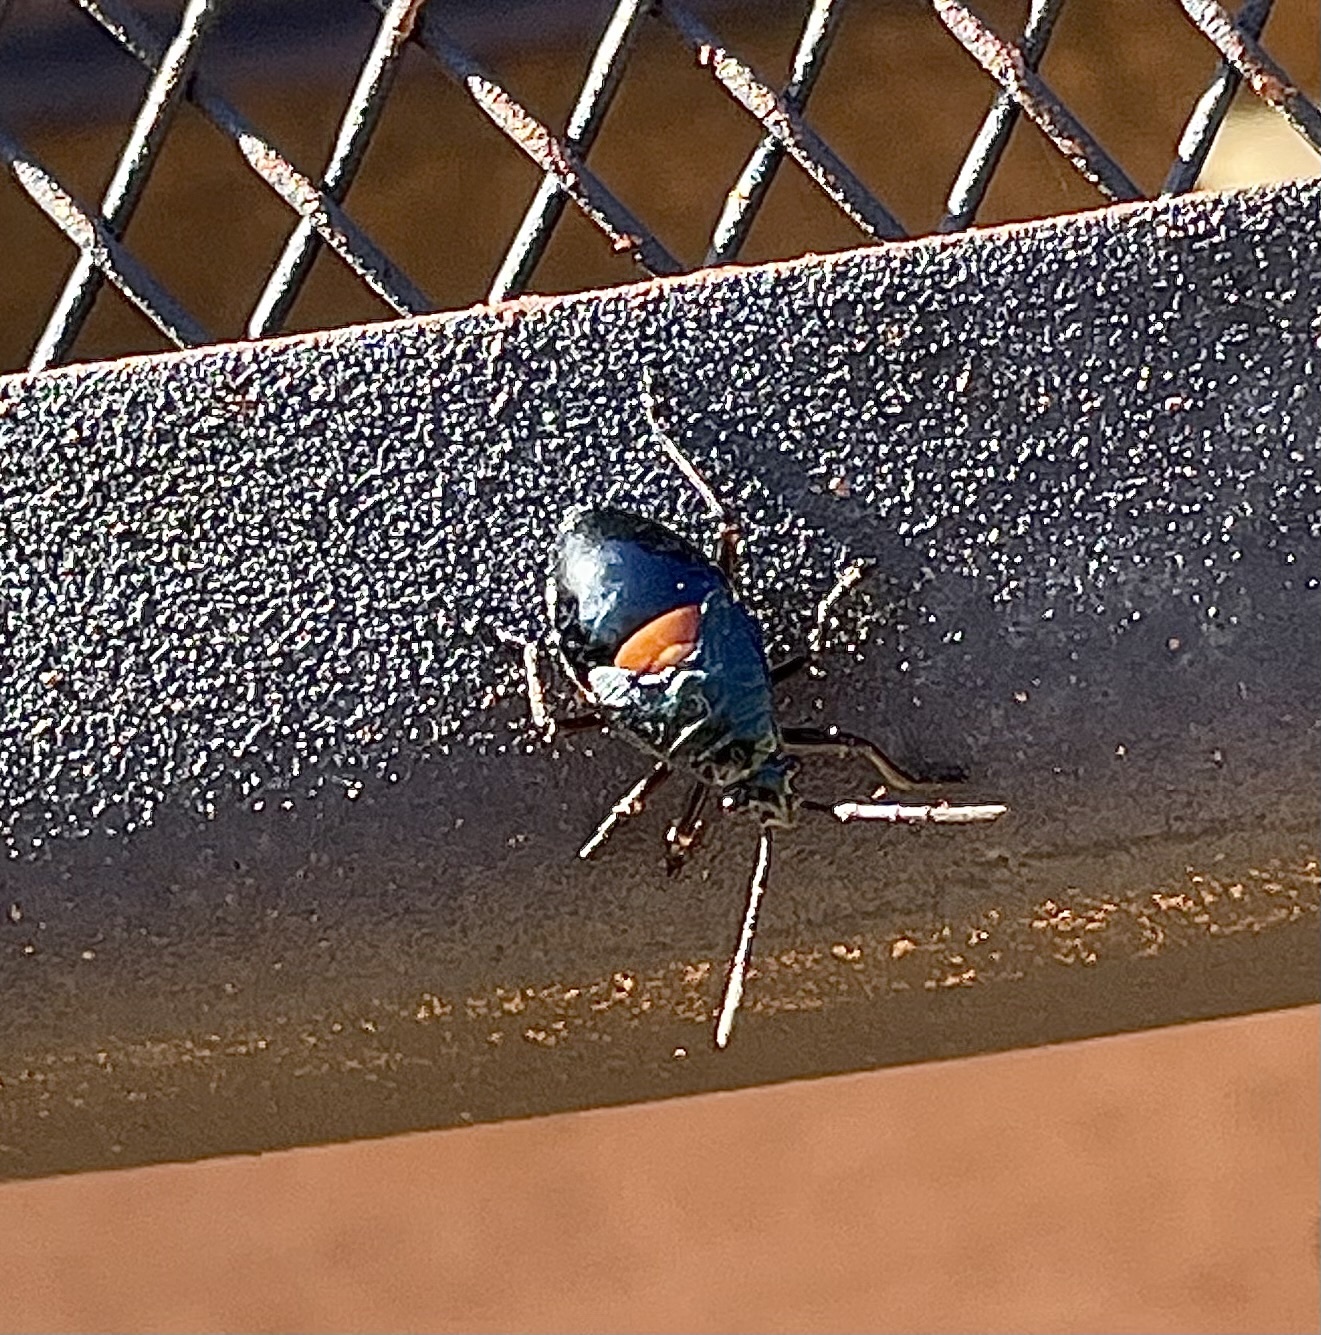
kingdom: Animalia
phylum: Arthropoda
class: Insecta
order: Hemiptera
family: Largidae
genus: Largus
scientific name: Largus succinctus
